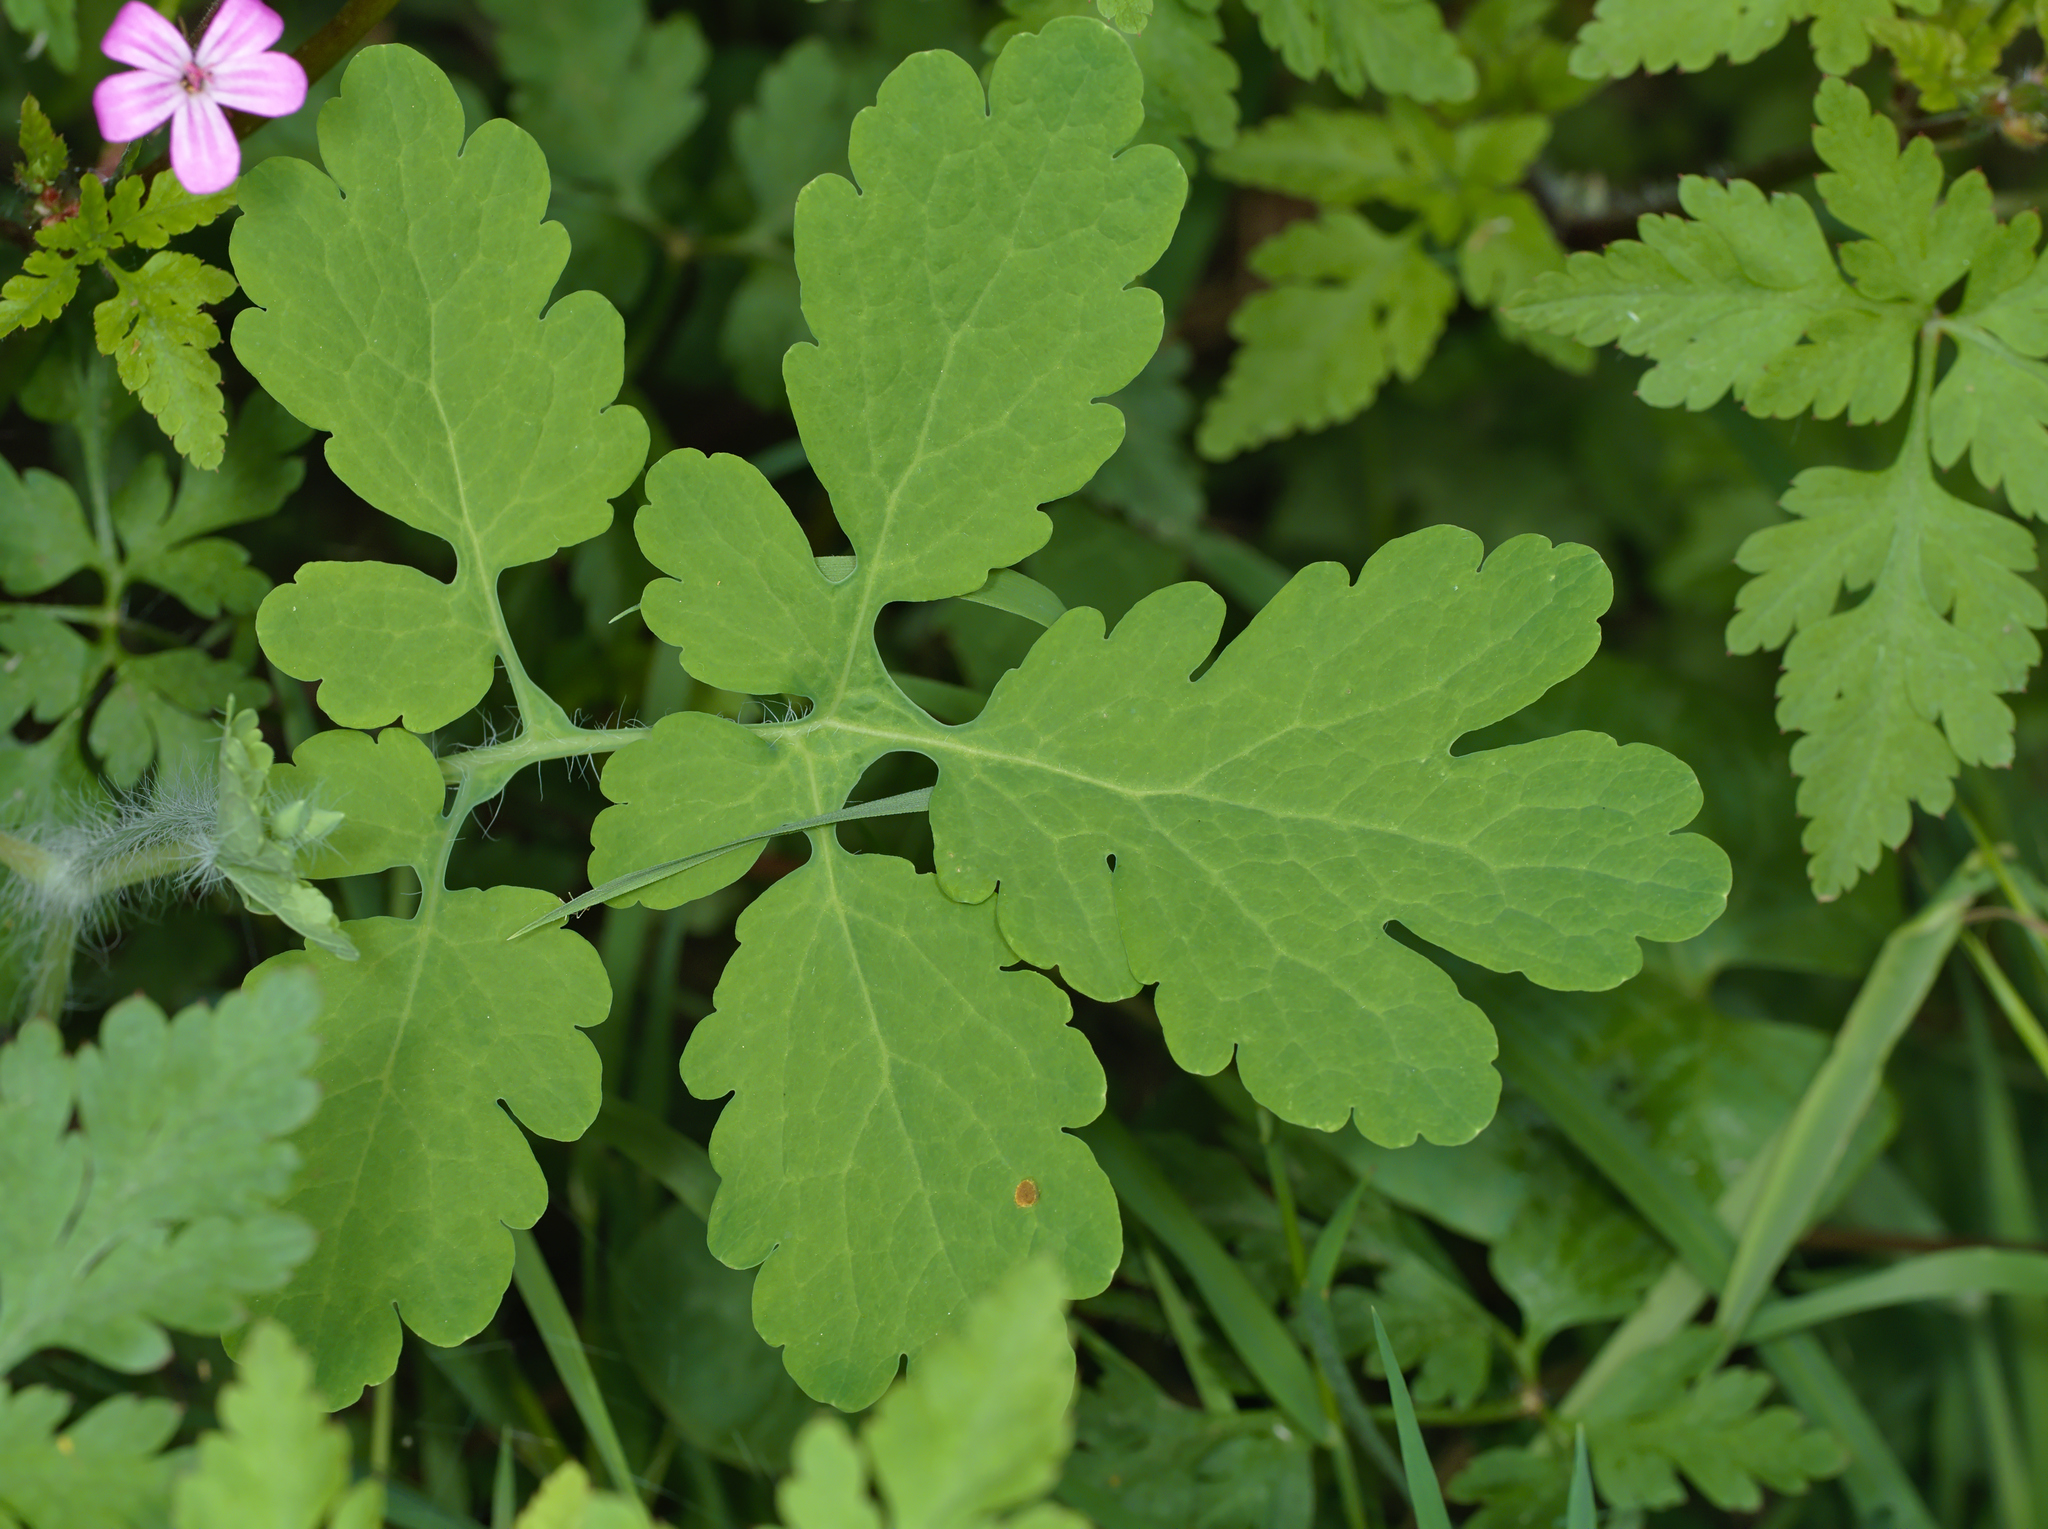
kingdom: Plantae
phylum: Tracheophyta
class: Magnoliopsida
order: Ranunculales
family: Papaveraceae
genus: Chelidonium
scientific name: Chelidonium majus
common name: Greater celandine
